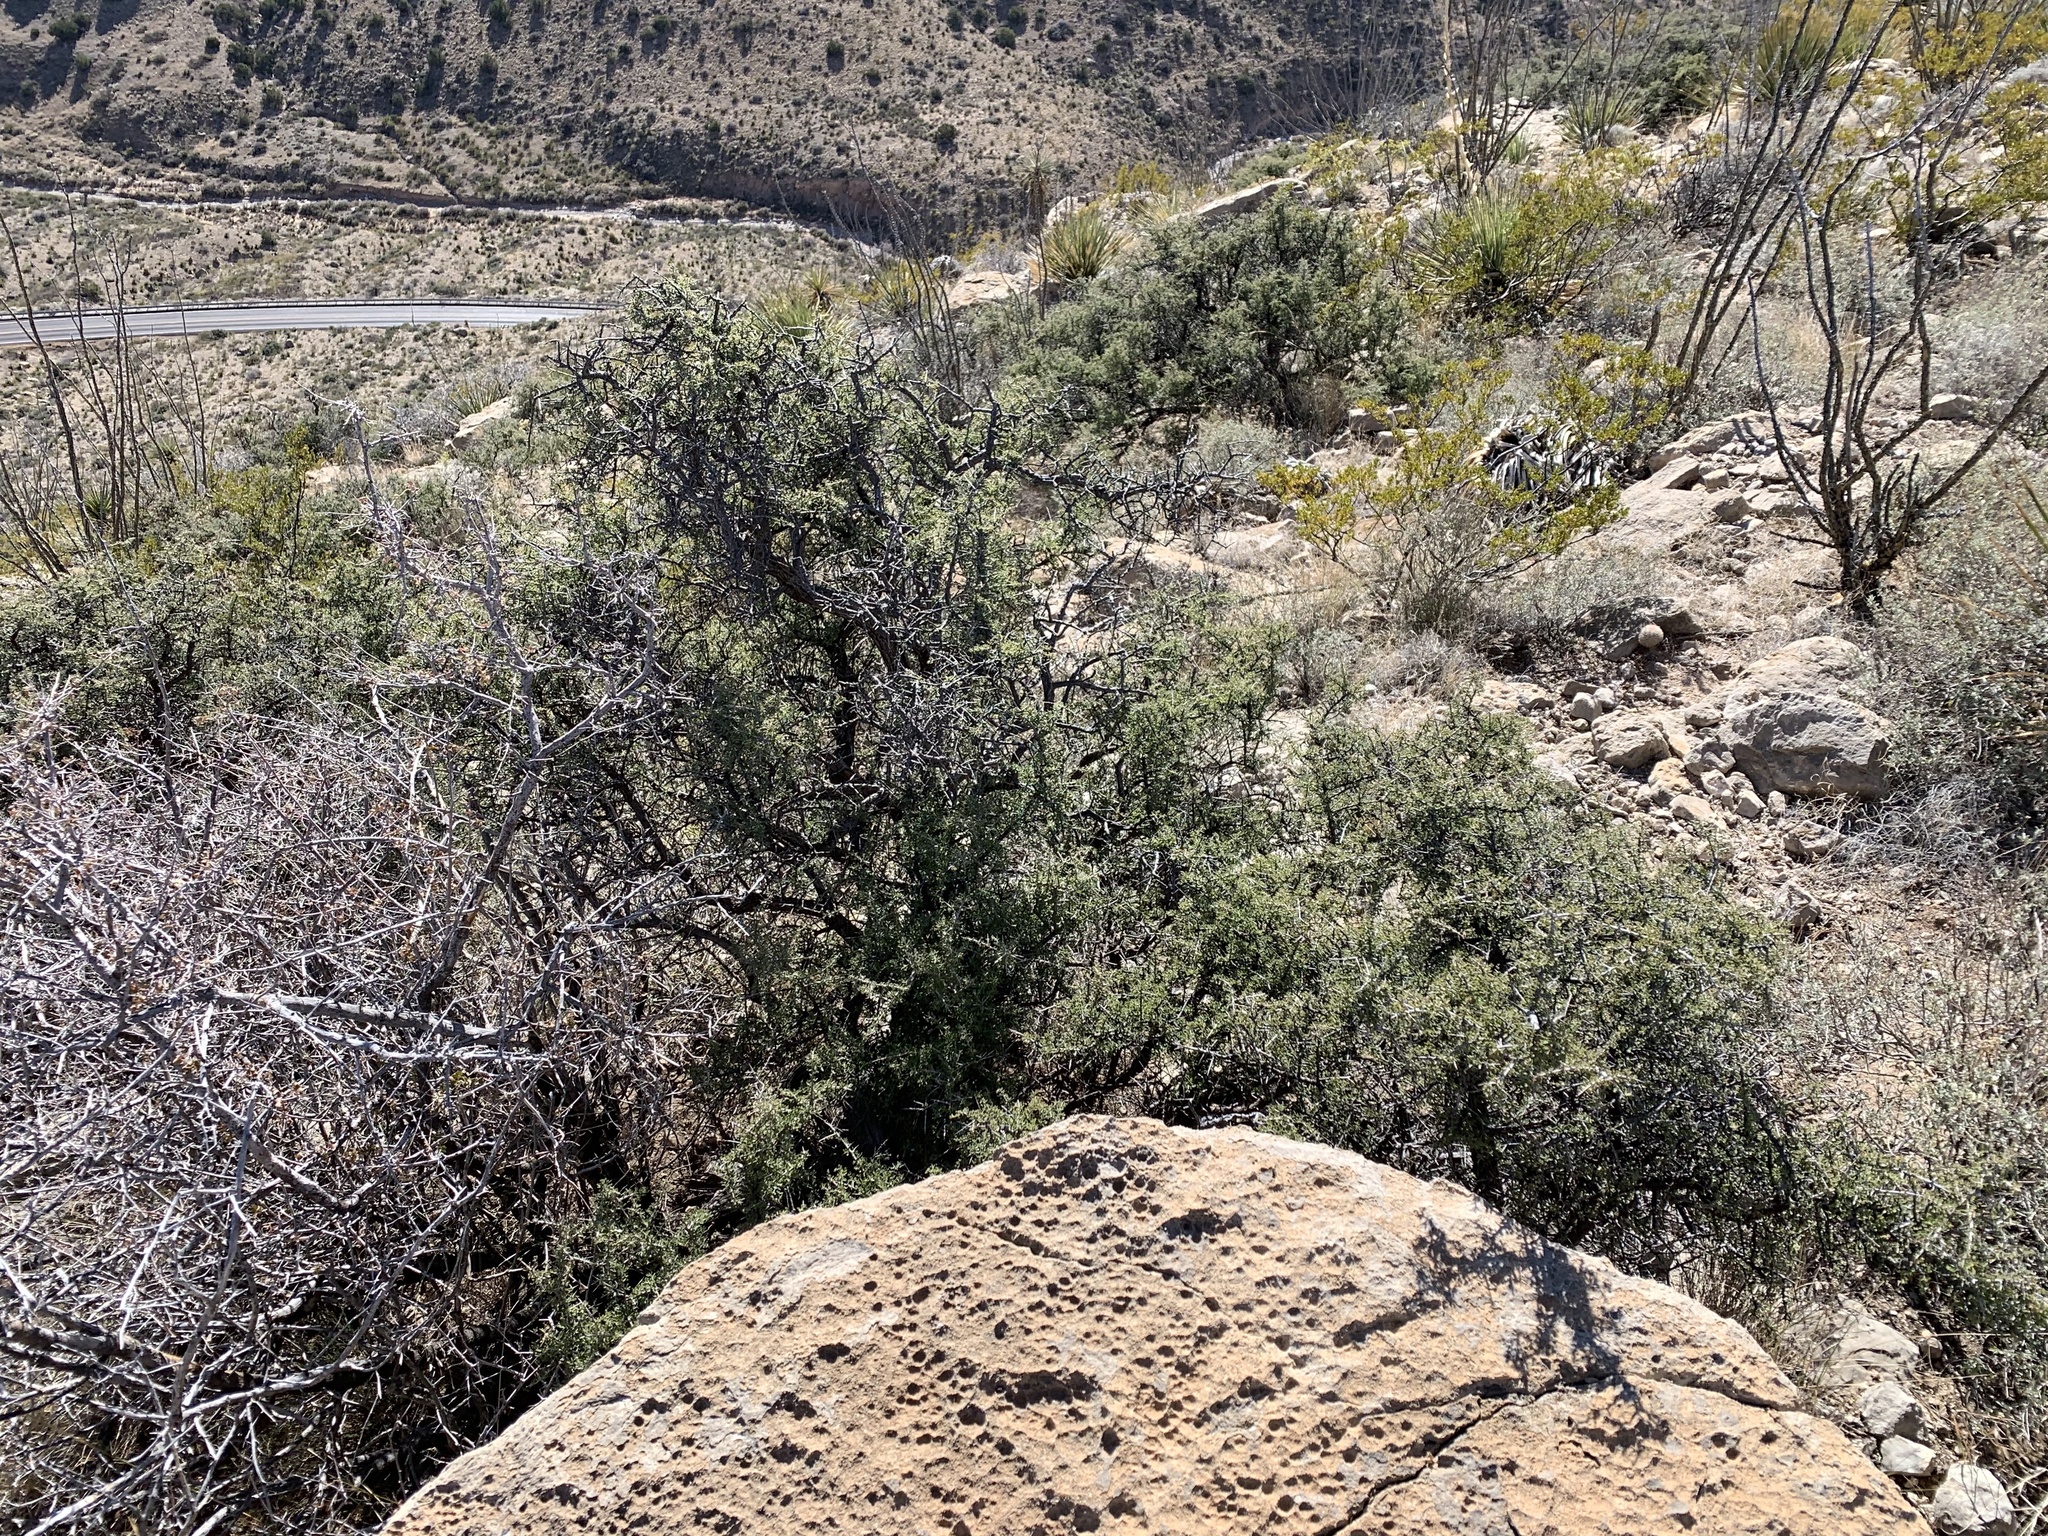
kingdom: Plantae
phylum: Tracheophyta
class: Magnoliopsida
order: Rosales
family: Rhamnaceae
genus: Condalia
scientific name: Condalia warnockii
